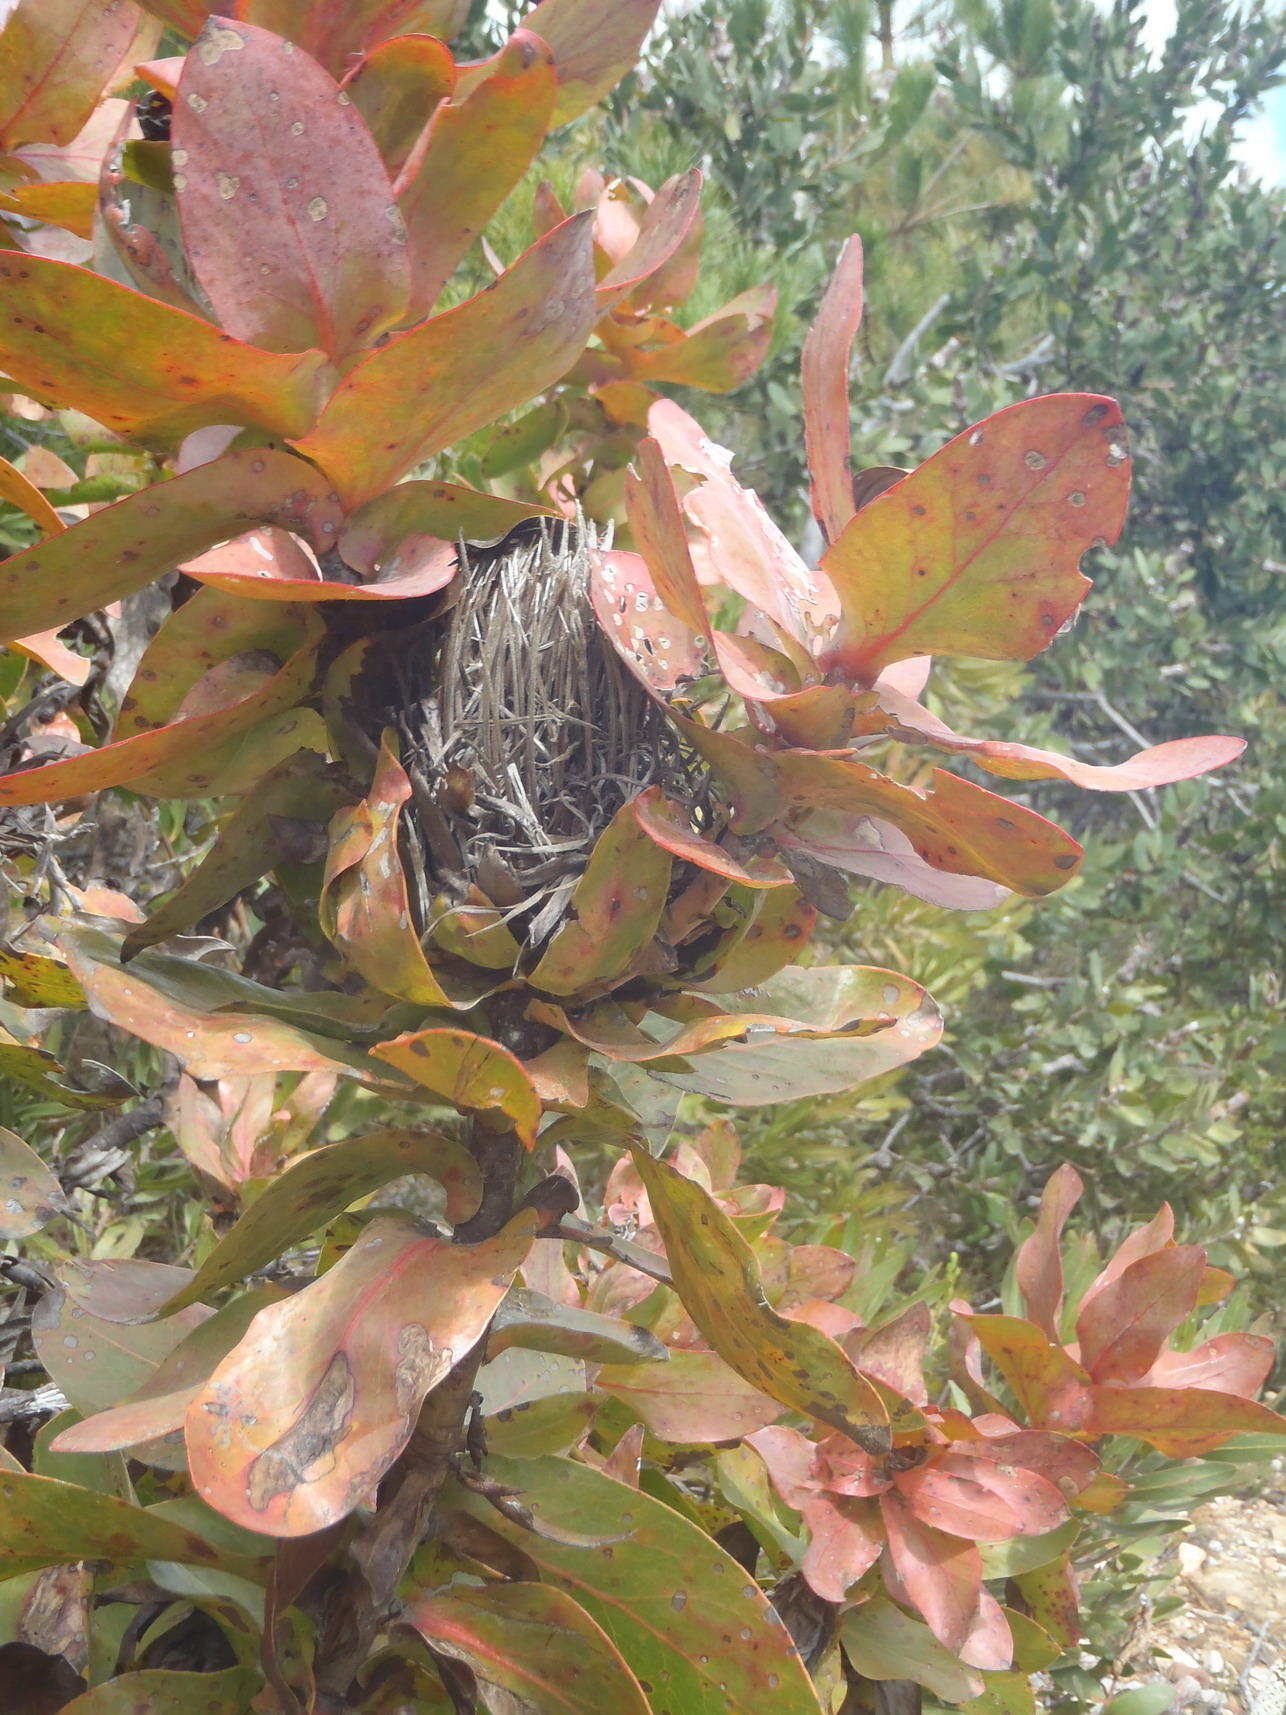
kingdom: Plantae
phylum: Tracheophyta
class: Magnoliopsida
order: Proteales
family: Proteaceae
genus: Protea
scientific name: Protea eximia
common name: Broad-leaved sugarbush
